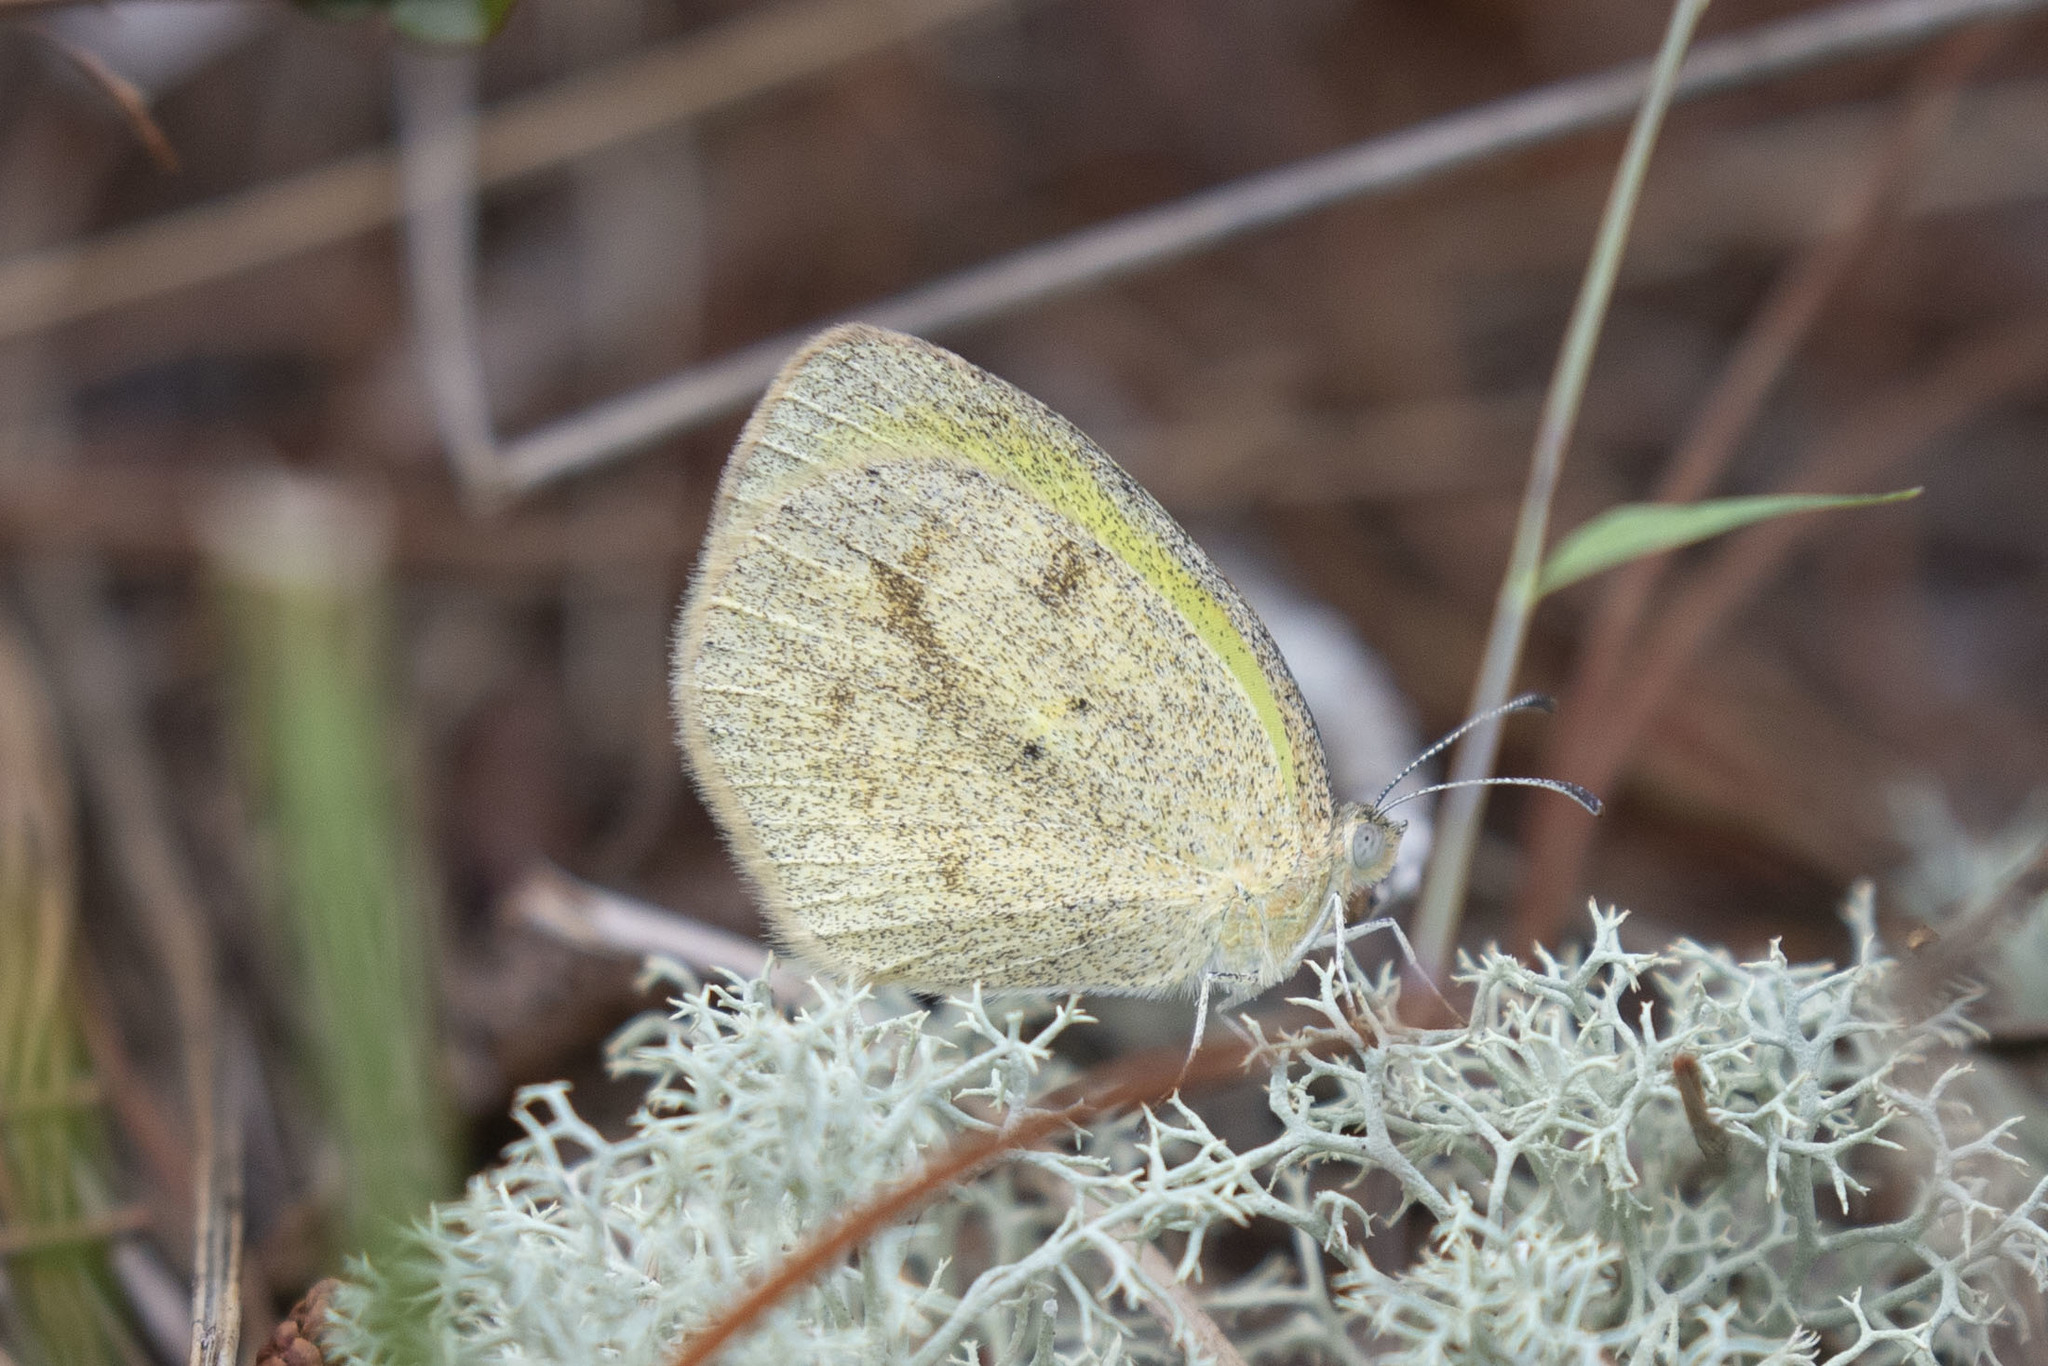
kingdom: Animalia
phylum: Arthropoda
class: Insecta
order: Lepidoptera
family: Pieridae
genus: Eurema
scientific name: Eurema daira
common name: Barred sulphur
